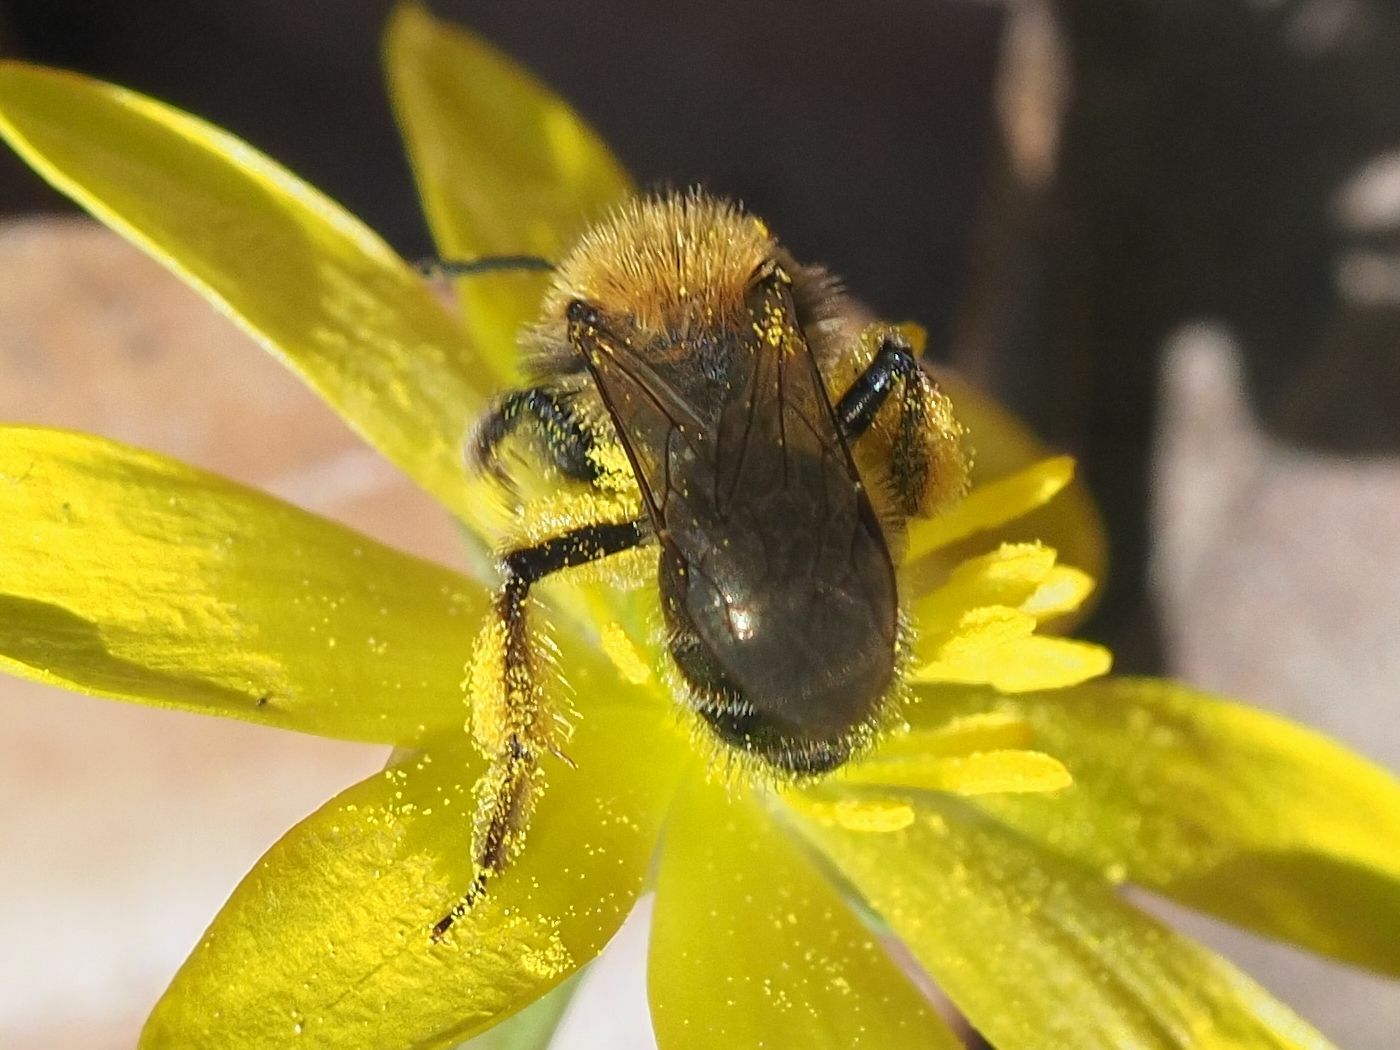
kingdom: Animalia
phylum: Arthropoda
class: Insecta
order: Hymenoptera
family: Andrenidae
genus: Andrena
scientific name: Andrena bicolor
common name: Gwynne's mining bee
